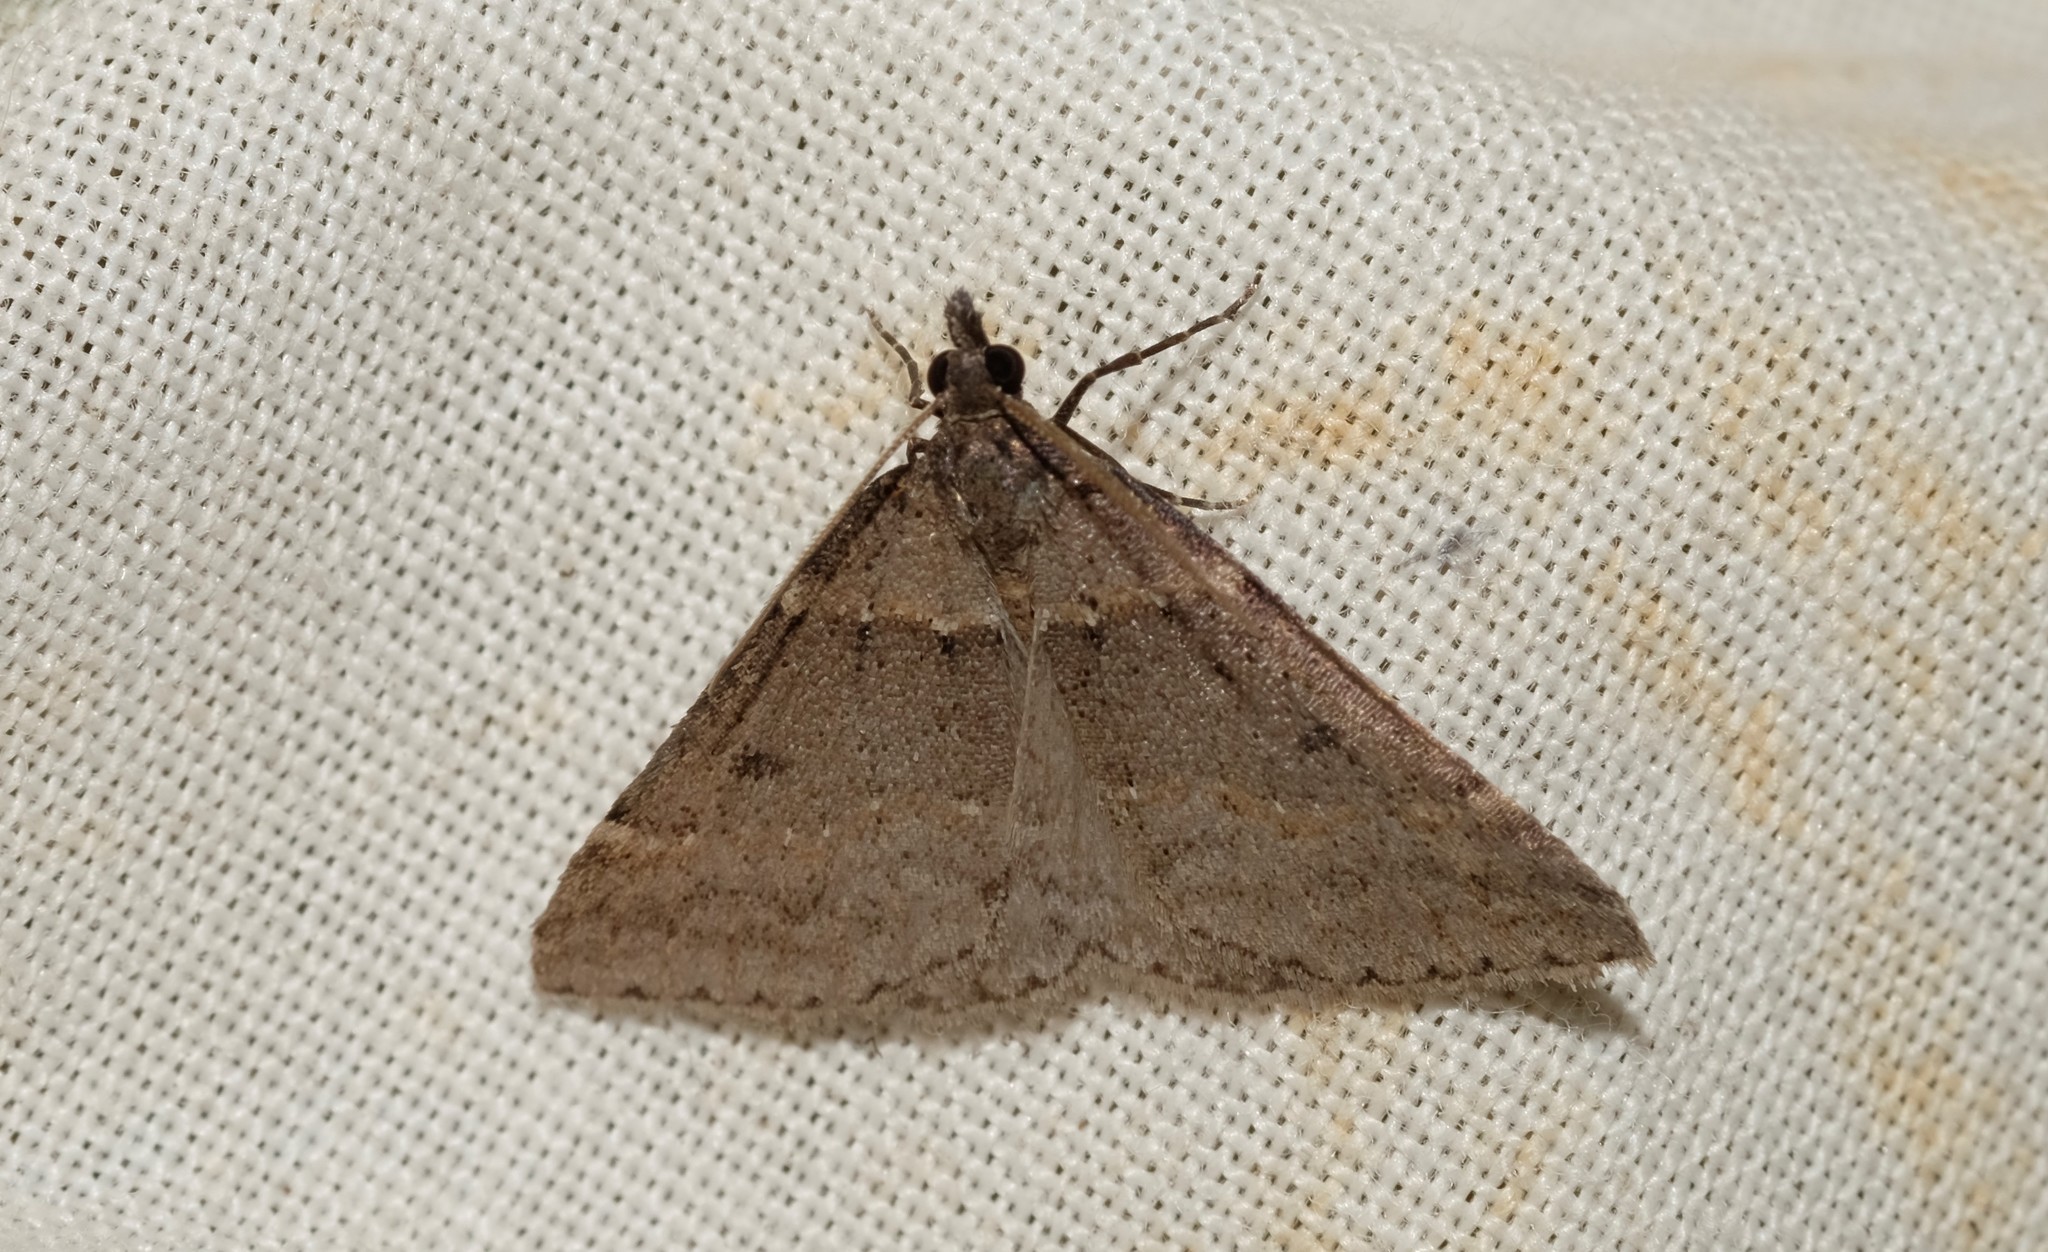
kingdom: Animalia
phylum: Arthropoda
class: Insecta
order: Lepidoptera
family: Geometridae
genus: Dichromodes
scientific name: Dichromodes atrosignata
